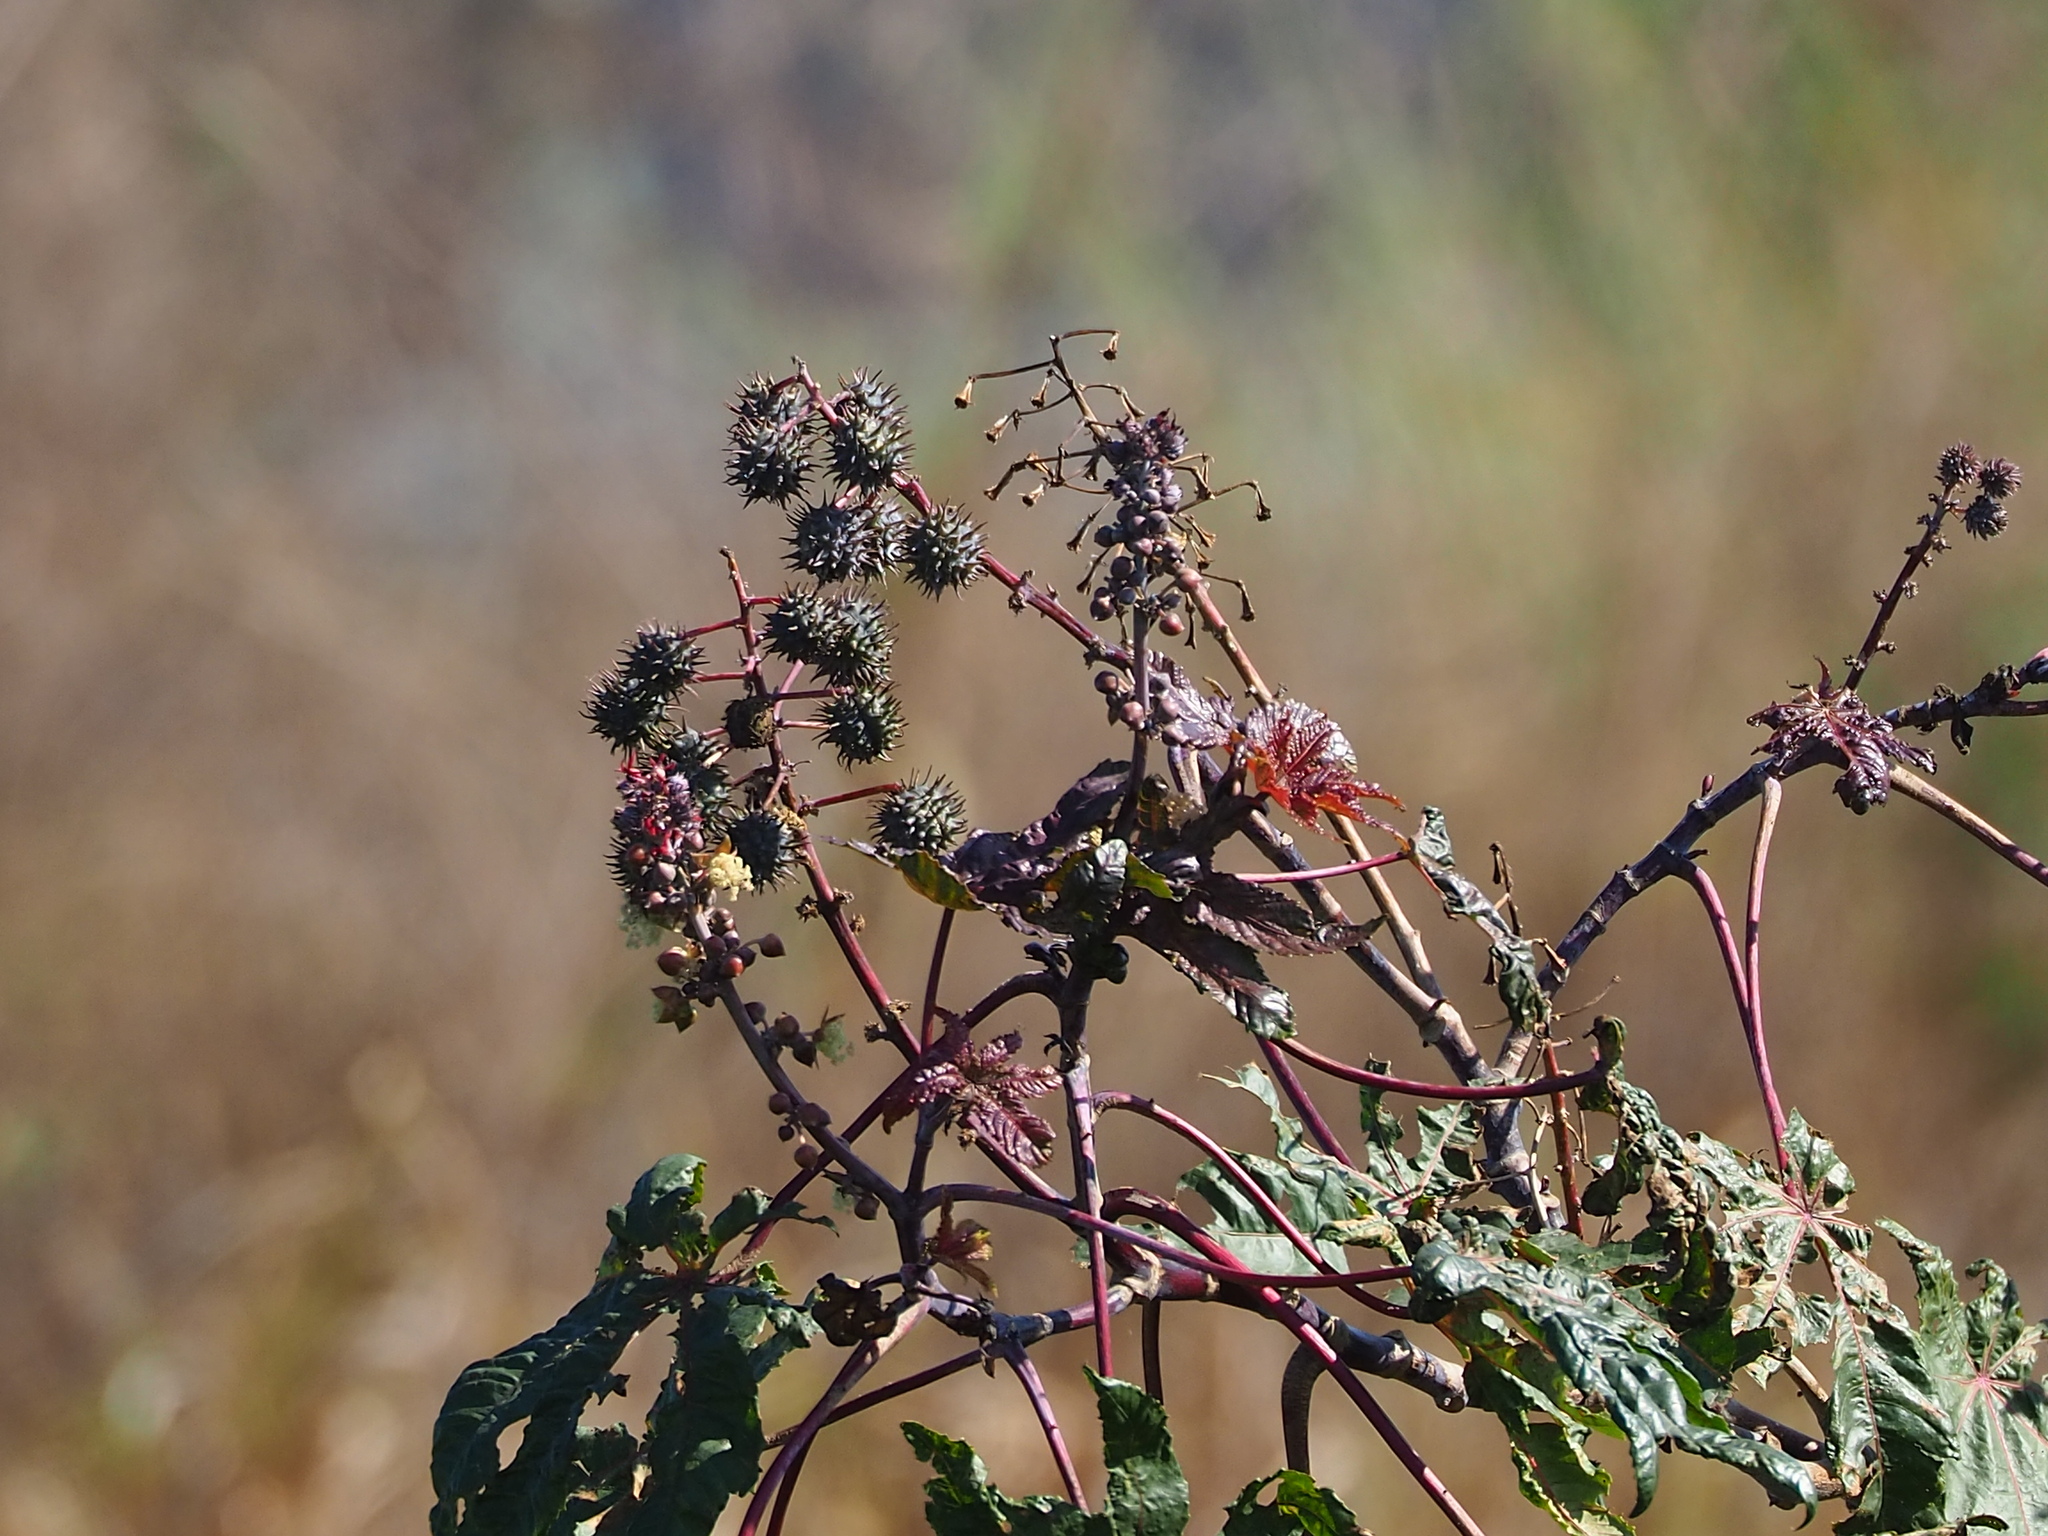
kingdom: Plantae
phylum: Tracheophyta
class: Magnoliopsida
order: Malpighiales
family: Euphorbiaceae
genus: Ricinus
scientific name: Ricinus communis
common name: Castor-oil-plant
